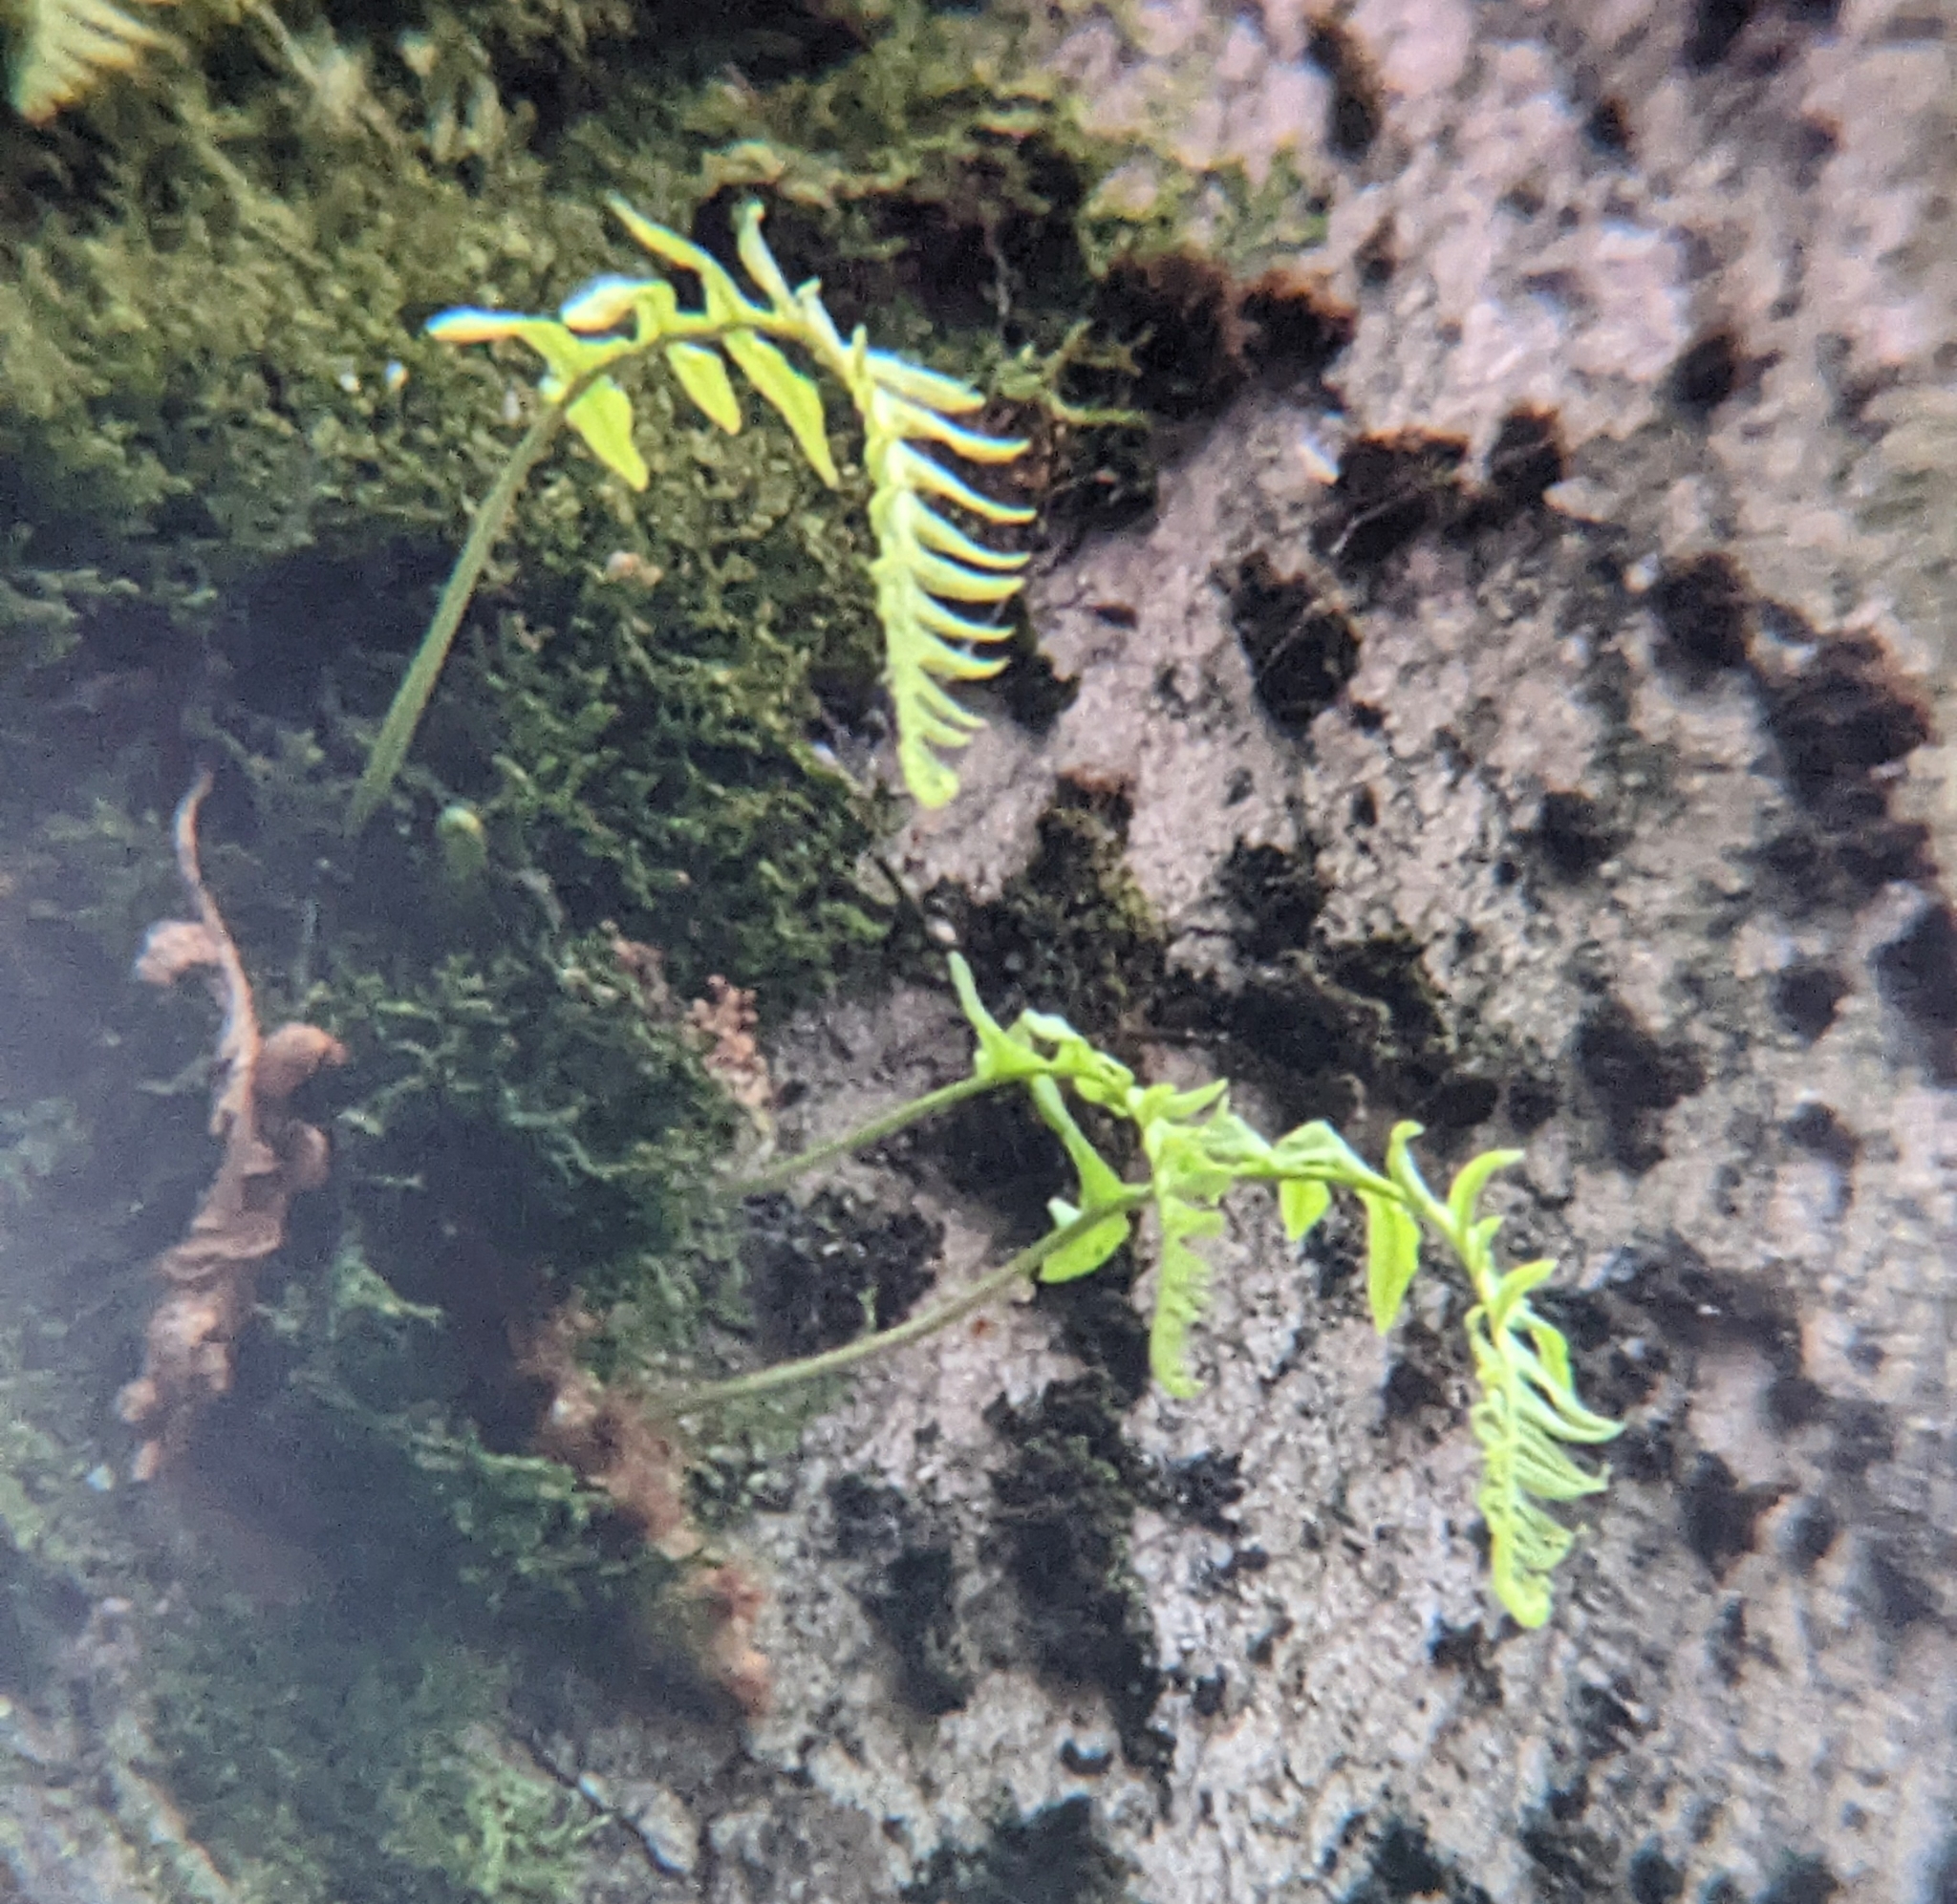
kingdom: Plantae
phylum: Tracheophyta
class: Polypodiopsida
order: Polypodiales
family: Polypodiaceae
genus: Polypodium
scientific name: Polypodium glycyrrhiza
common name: Licorice fern
